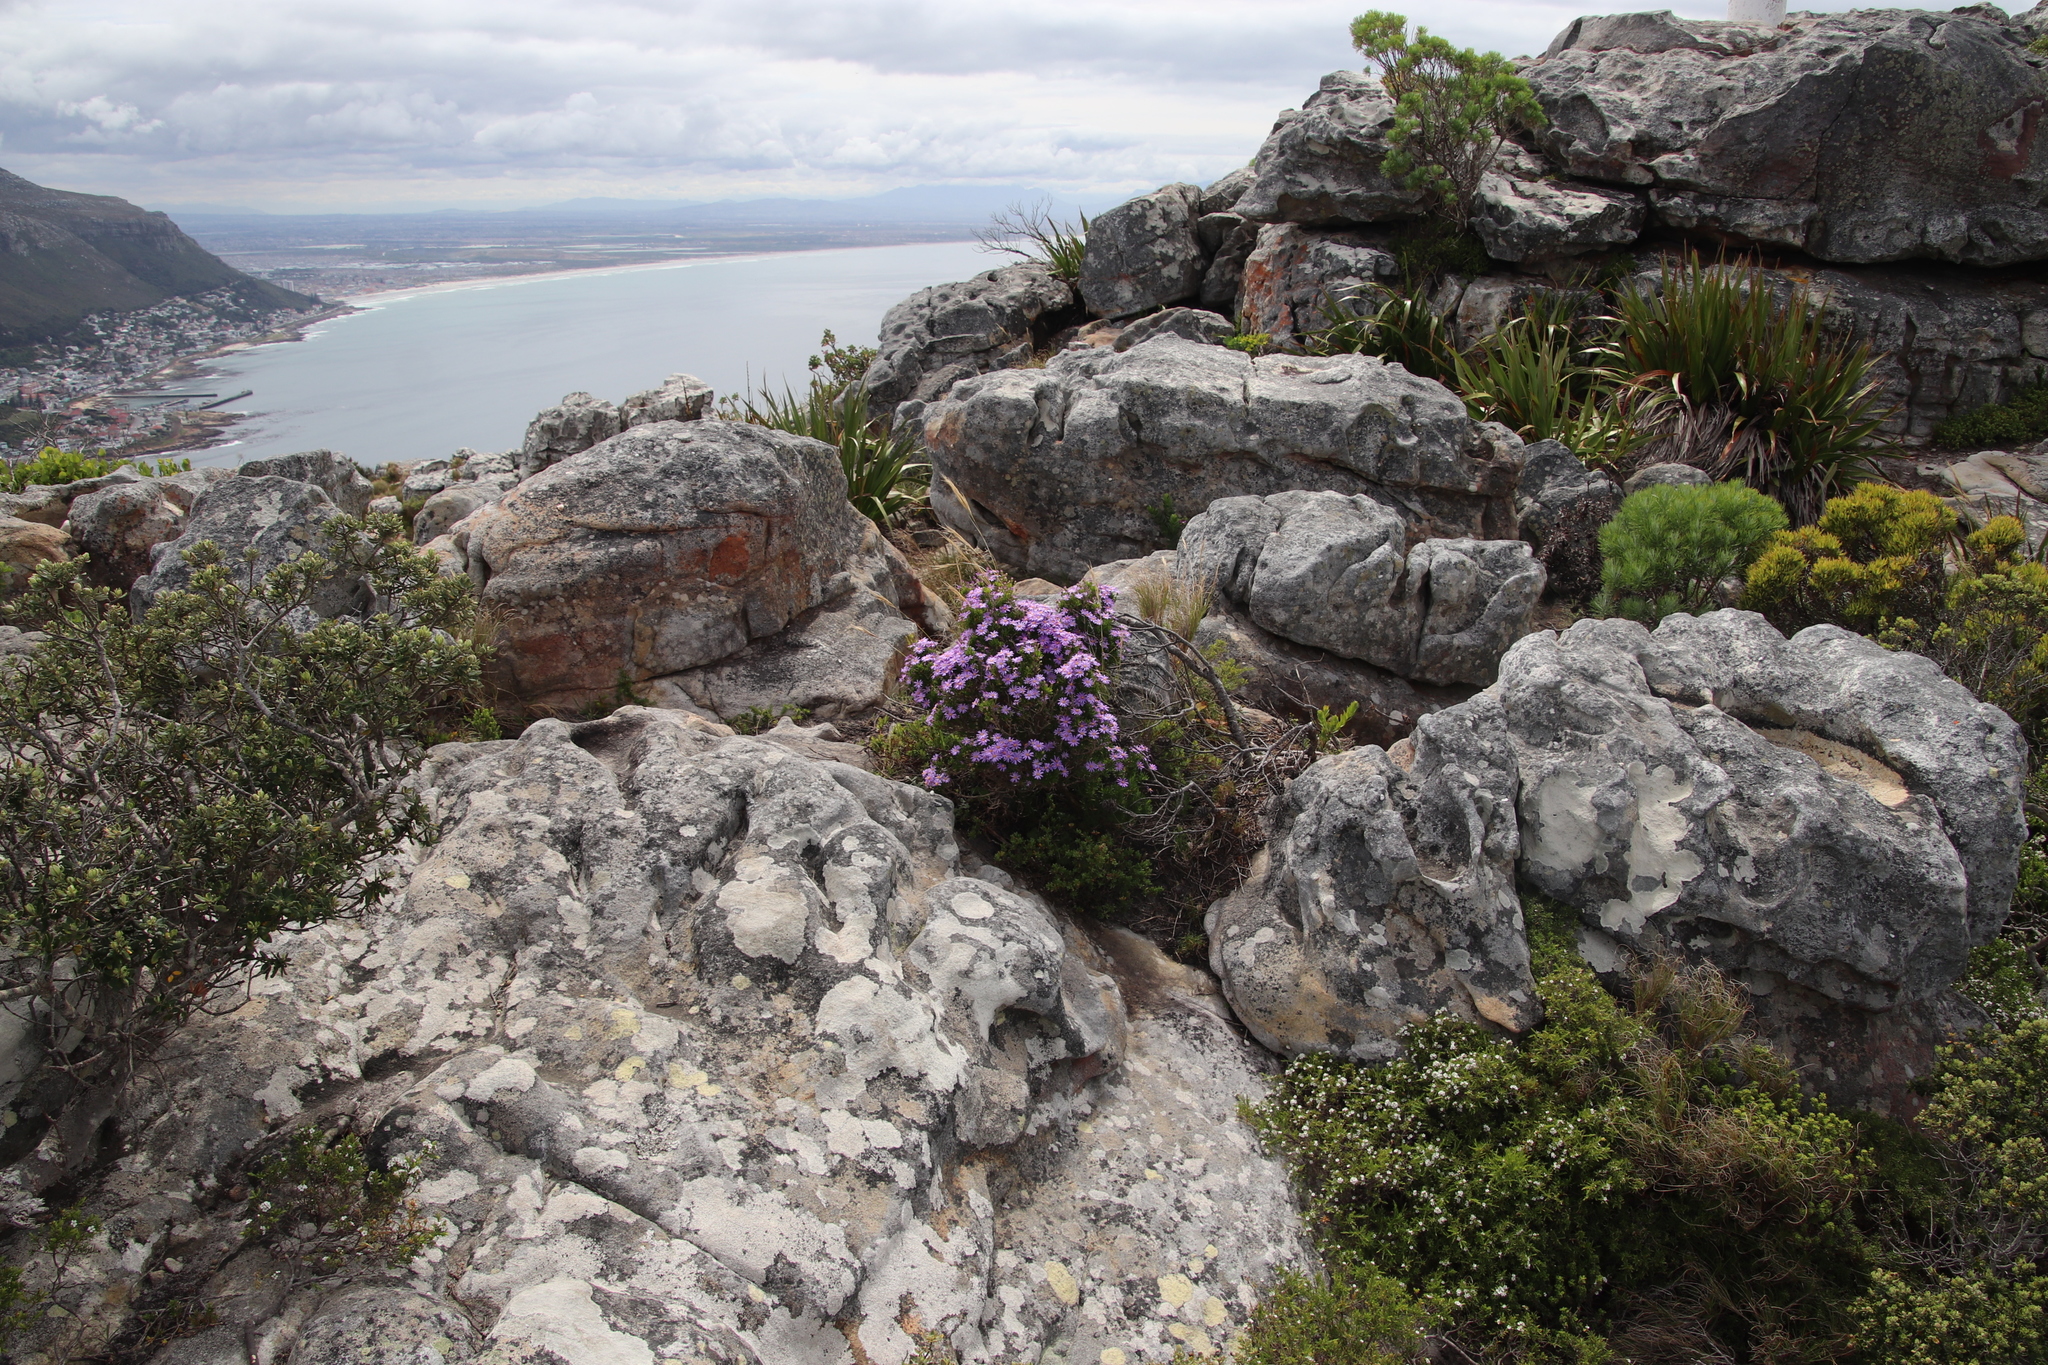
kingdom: Plantae
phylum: Tracheophyta
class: Magnoliopsida
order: Asterales
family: Asteraceae
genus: Felicia
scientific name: Felicia fruticosa
